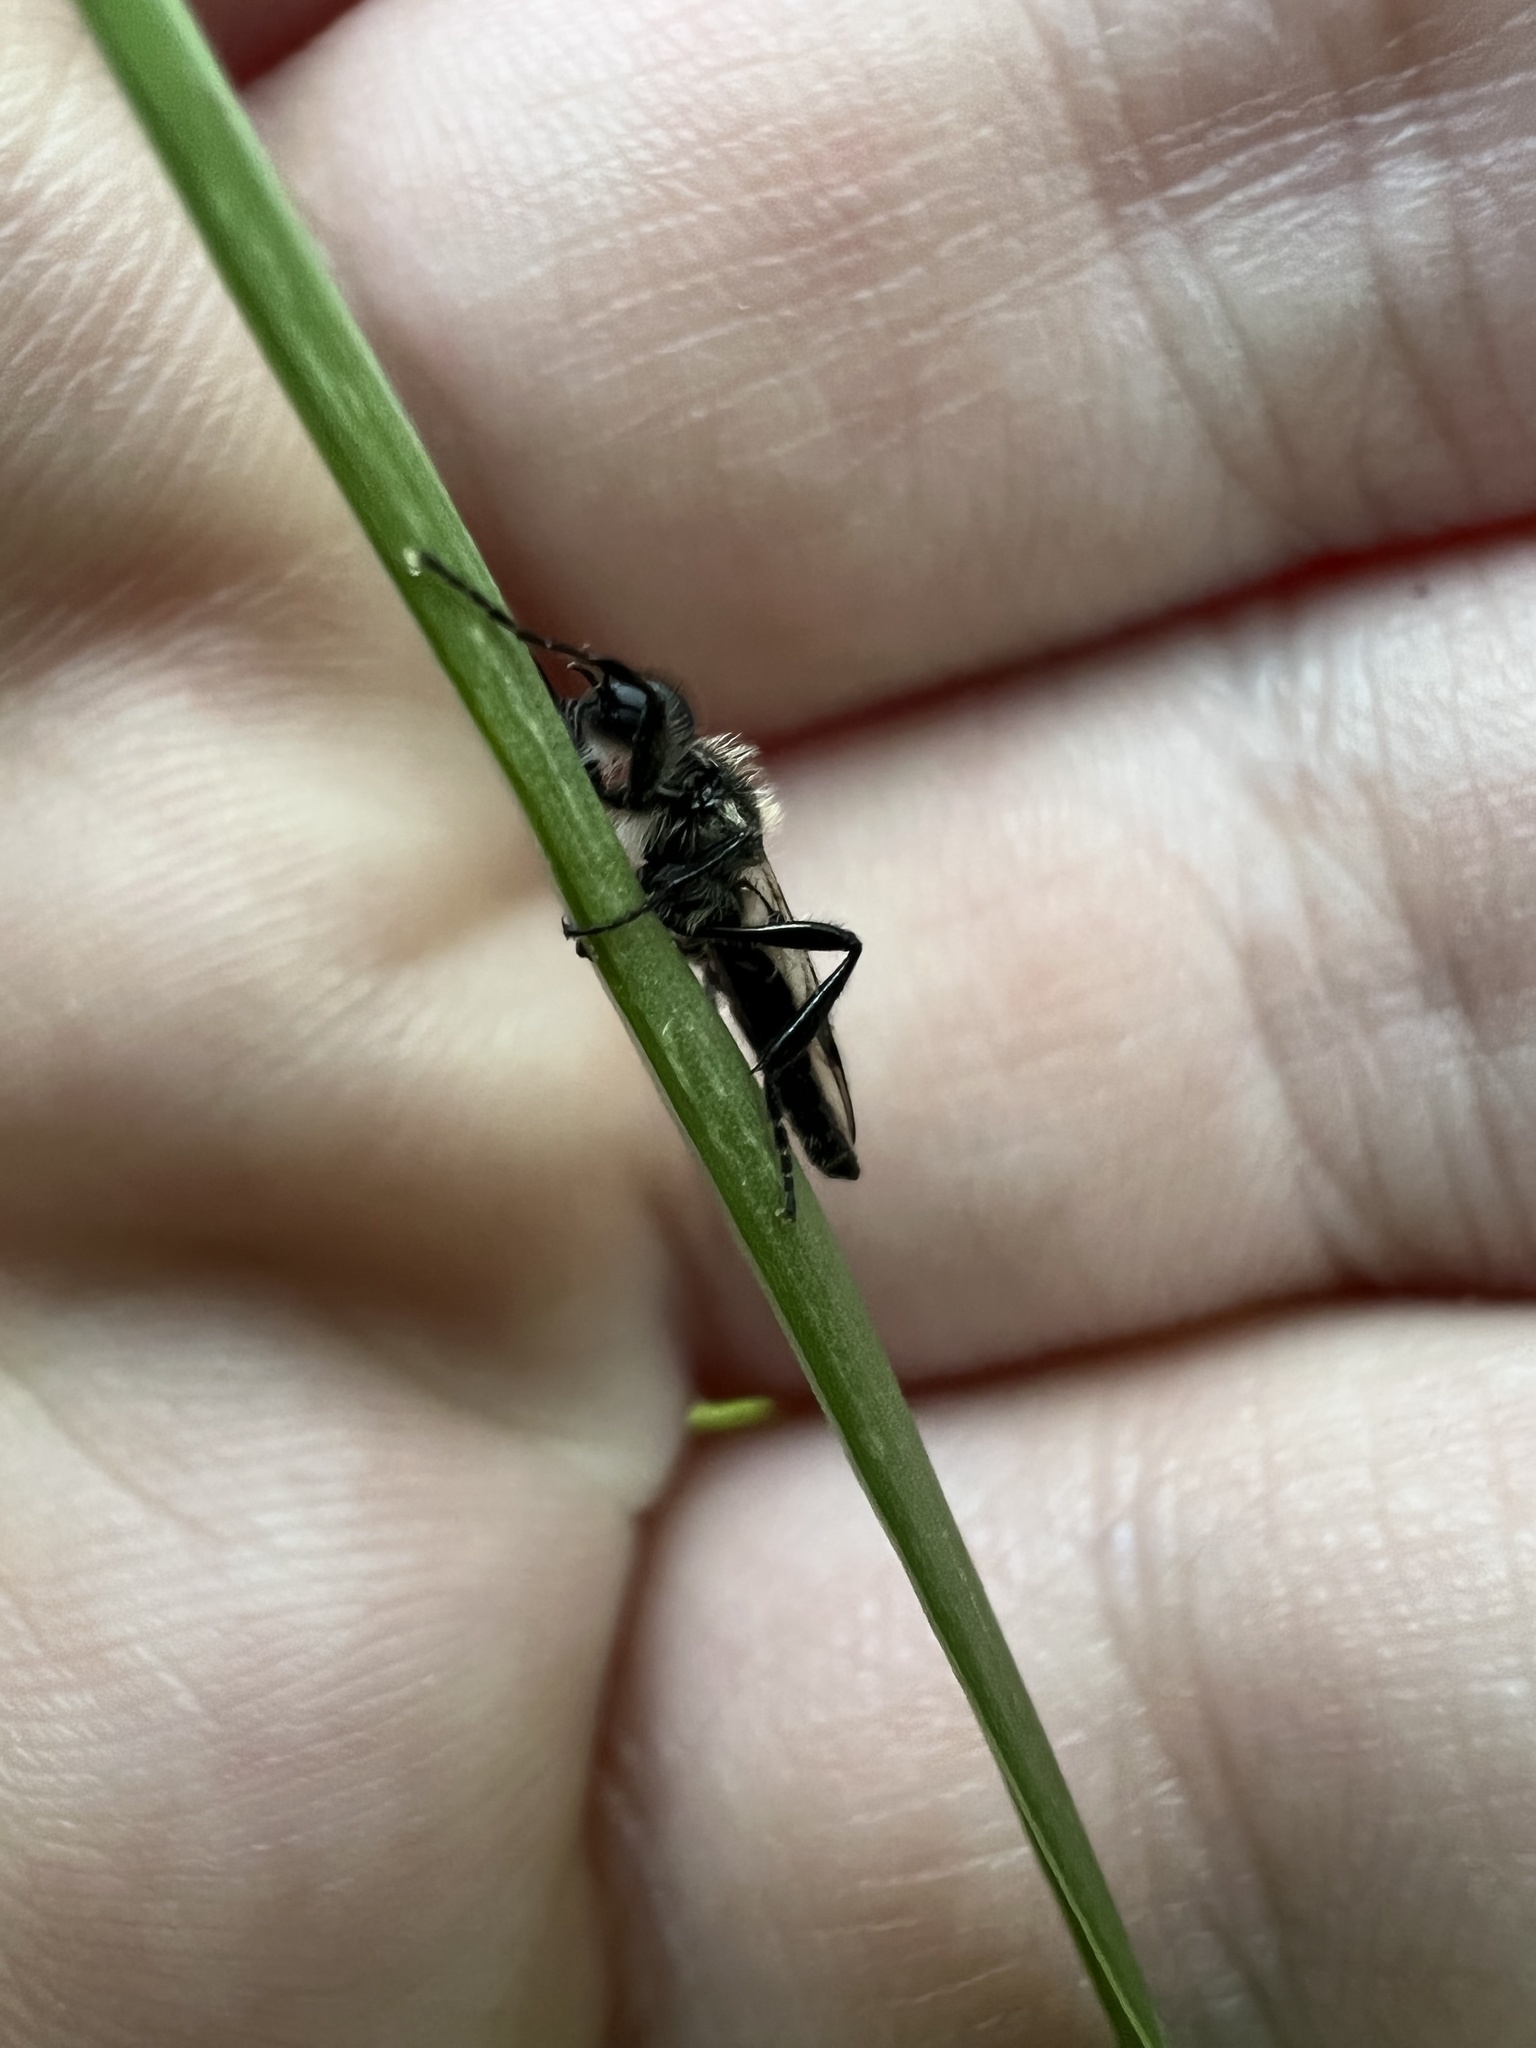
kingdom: Animalia
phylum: Arthropoda
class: Insecta
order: Diptera
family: Bibionidae
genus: Bibio
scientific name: Bibio albipennis
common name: White-winged march fly
